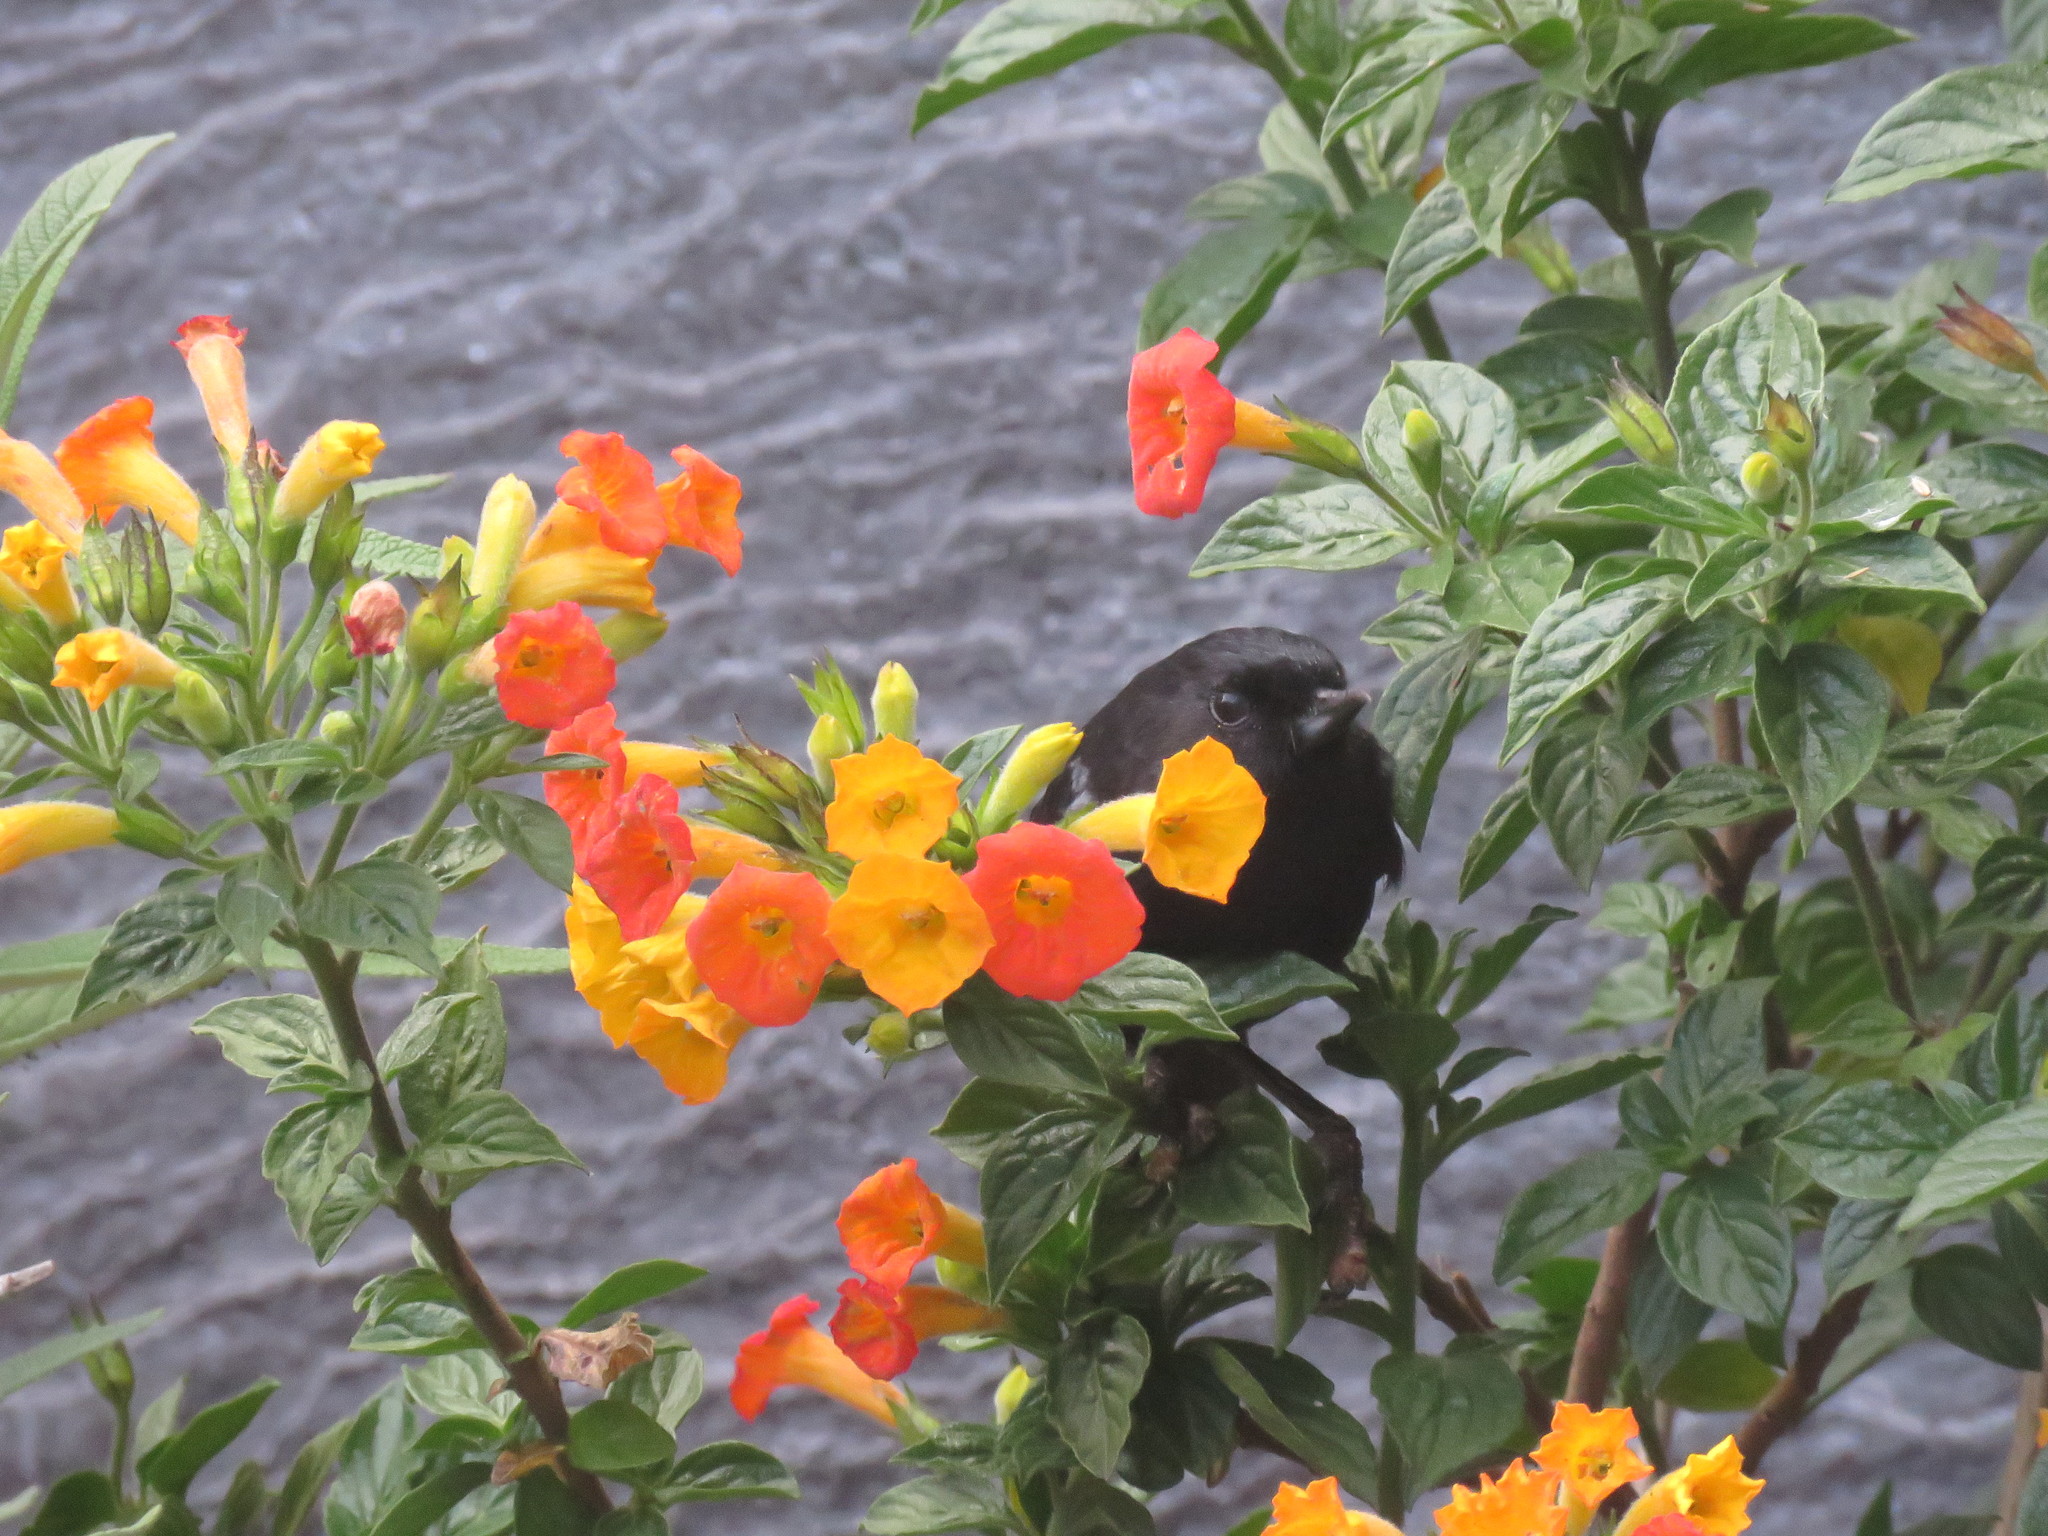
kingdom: Animalia
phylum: Chordata
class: Aves
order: Passeriformes
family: Thraupidae
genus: Diglossa
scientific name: Diglossa humeralis
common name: Black flowerpiercer
